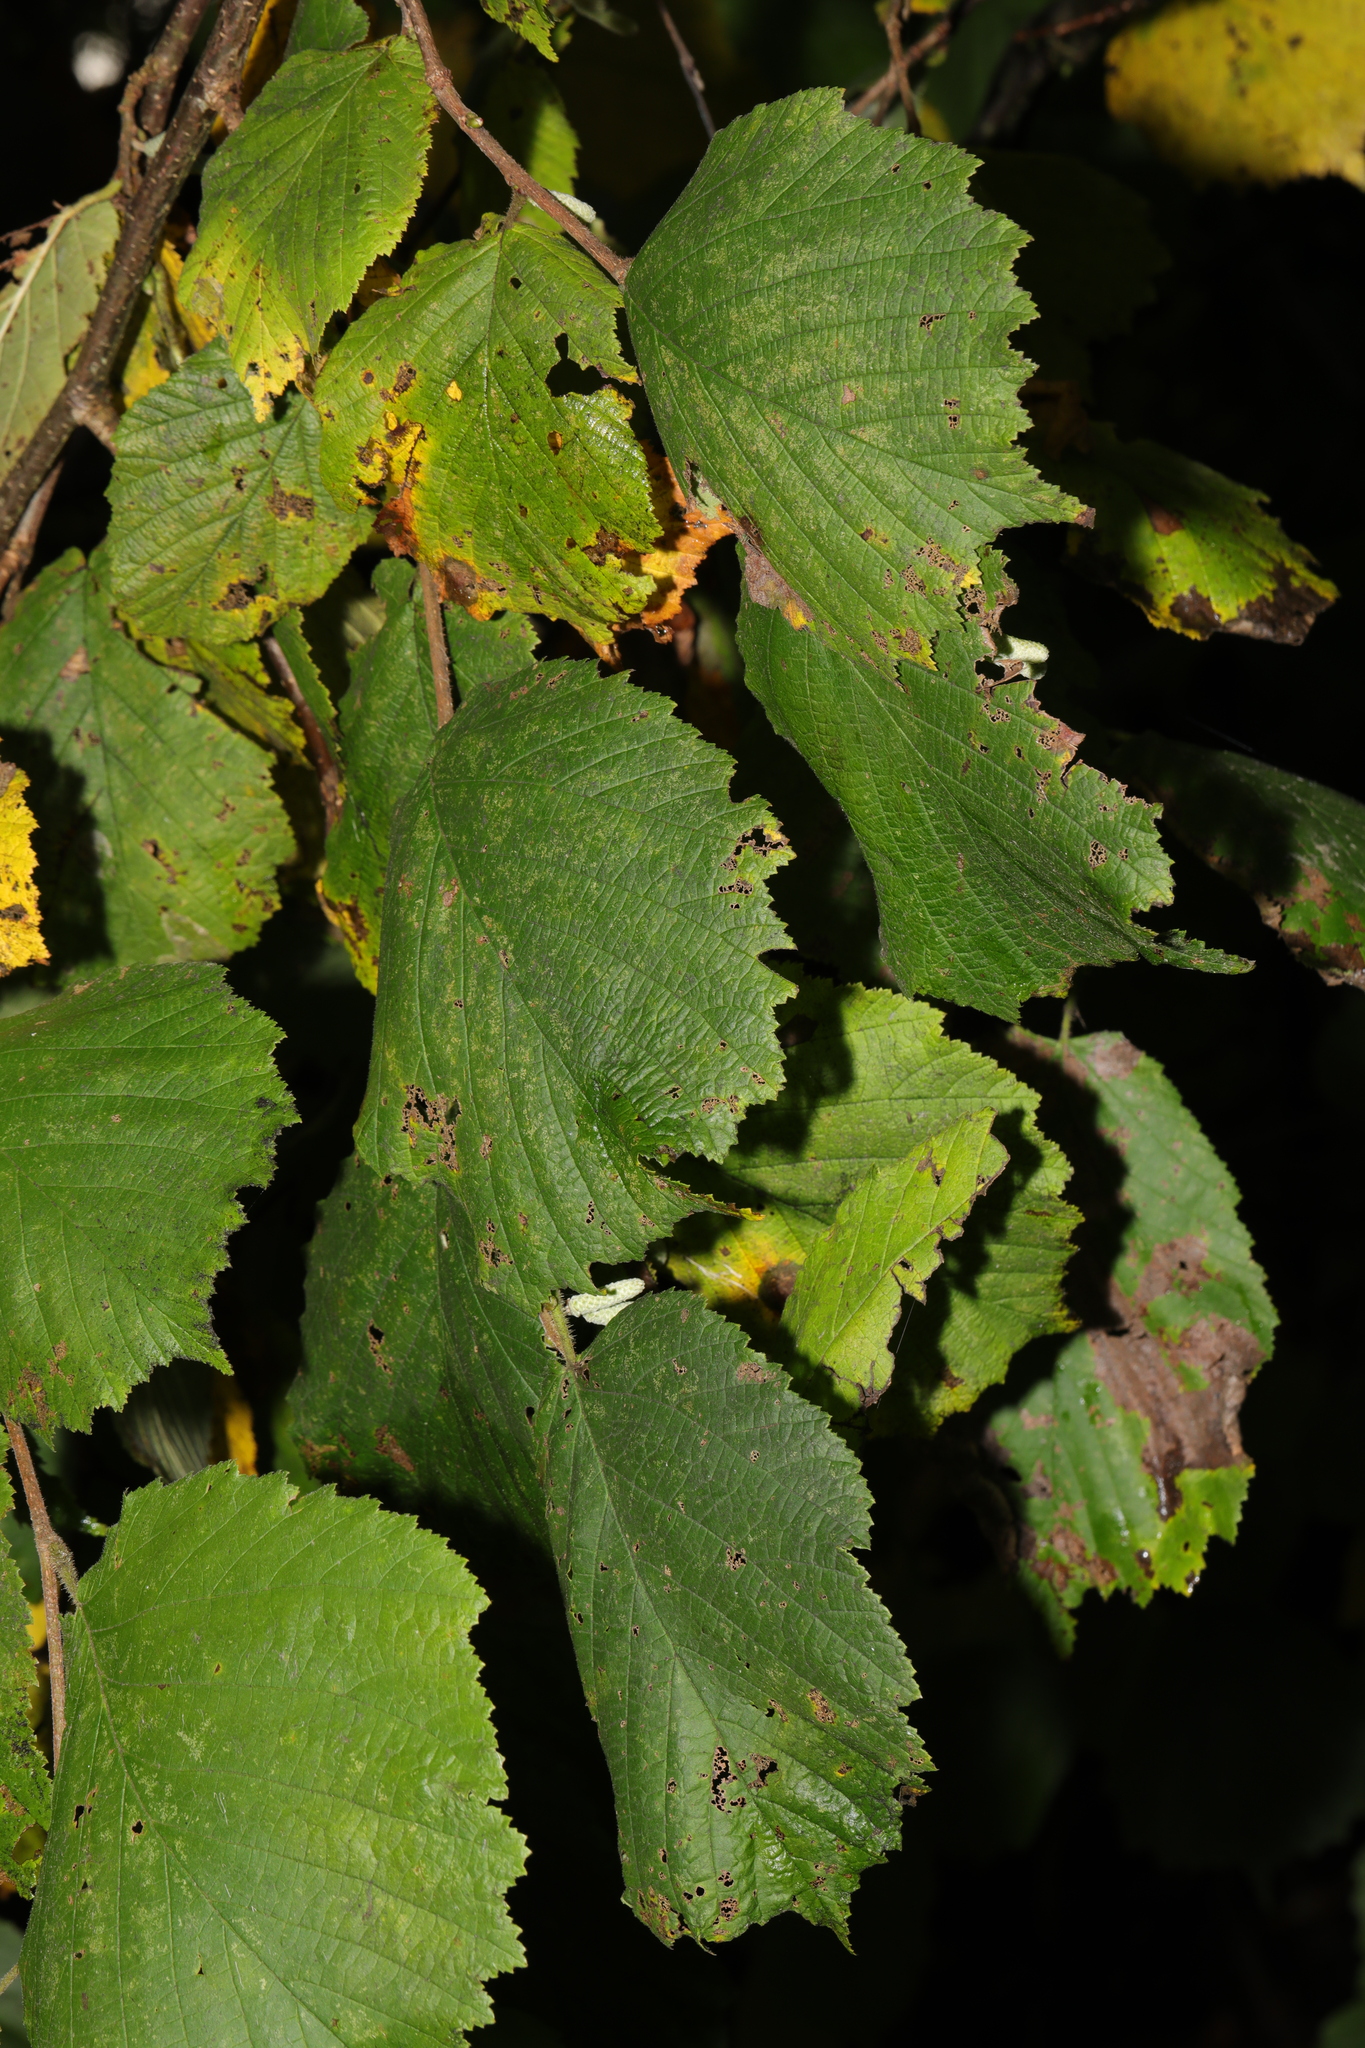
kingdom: Plantae
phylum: Tracheophyta
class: Magnoliopsida
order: Fagales
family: Betulaceae
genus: Corylus
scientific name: Corylus avellana
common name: European hazel
